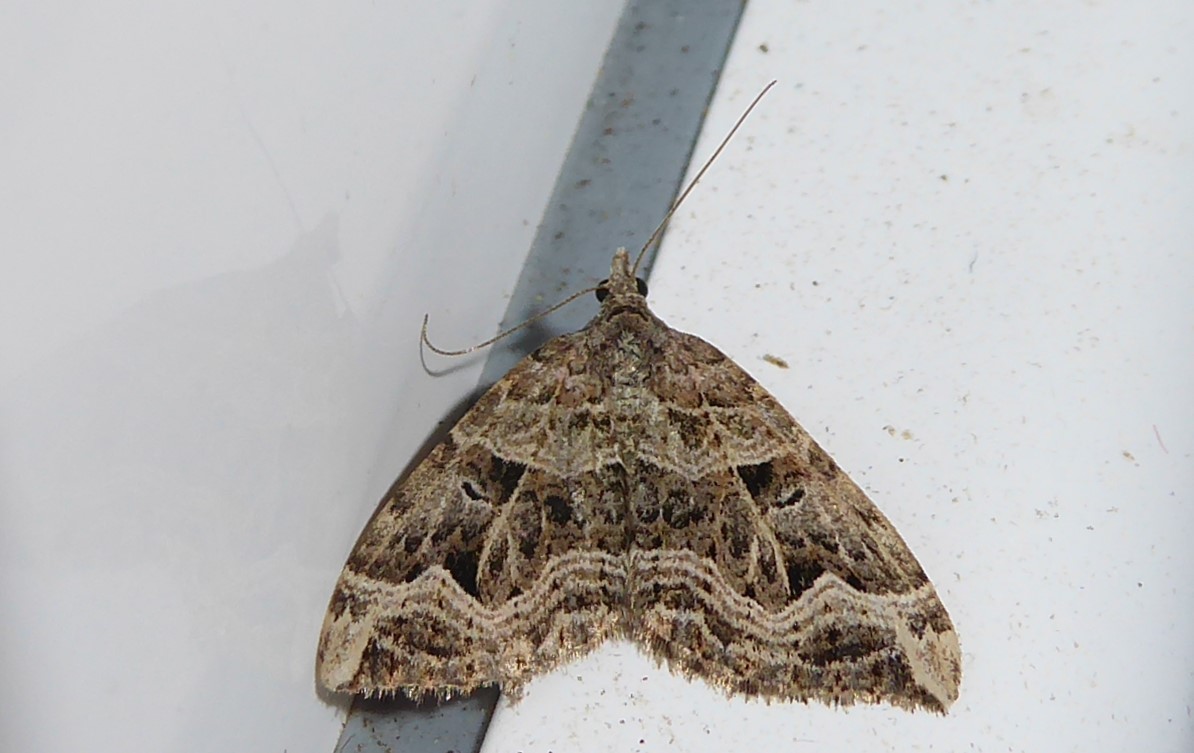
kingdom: Animalia
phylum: Arthropoda
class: Insecta
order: Lepidoptera
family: Geometridae
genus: Xanthorhoe
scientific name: Xanthorhoe semifissata
